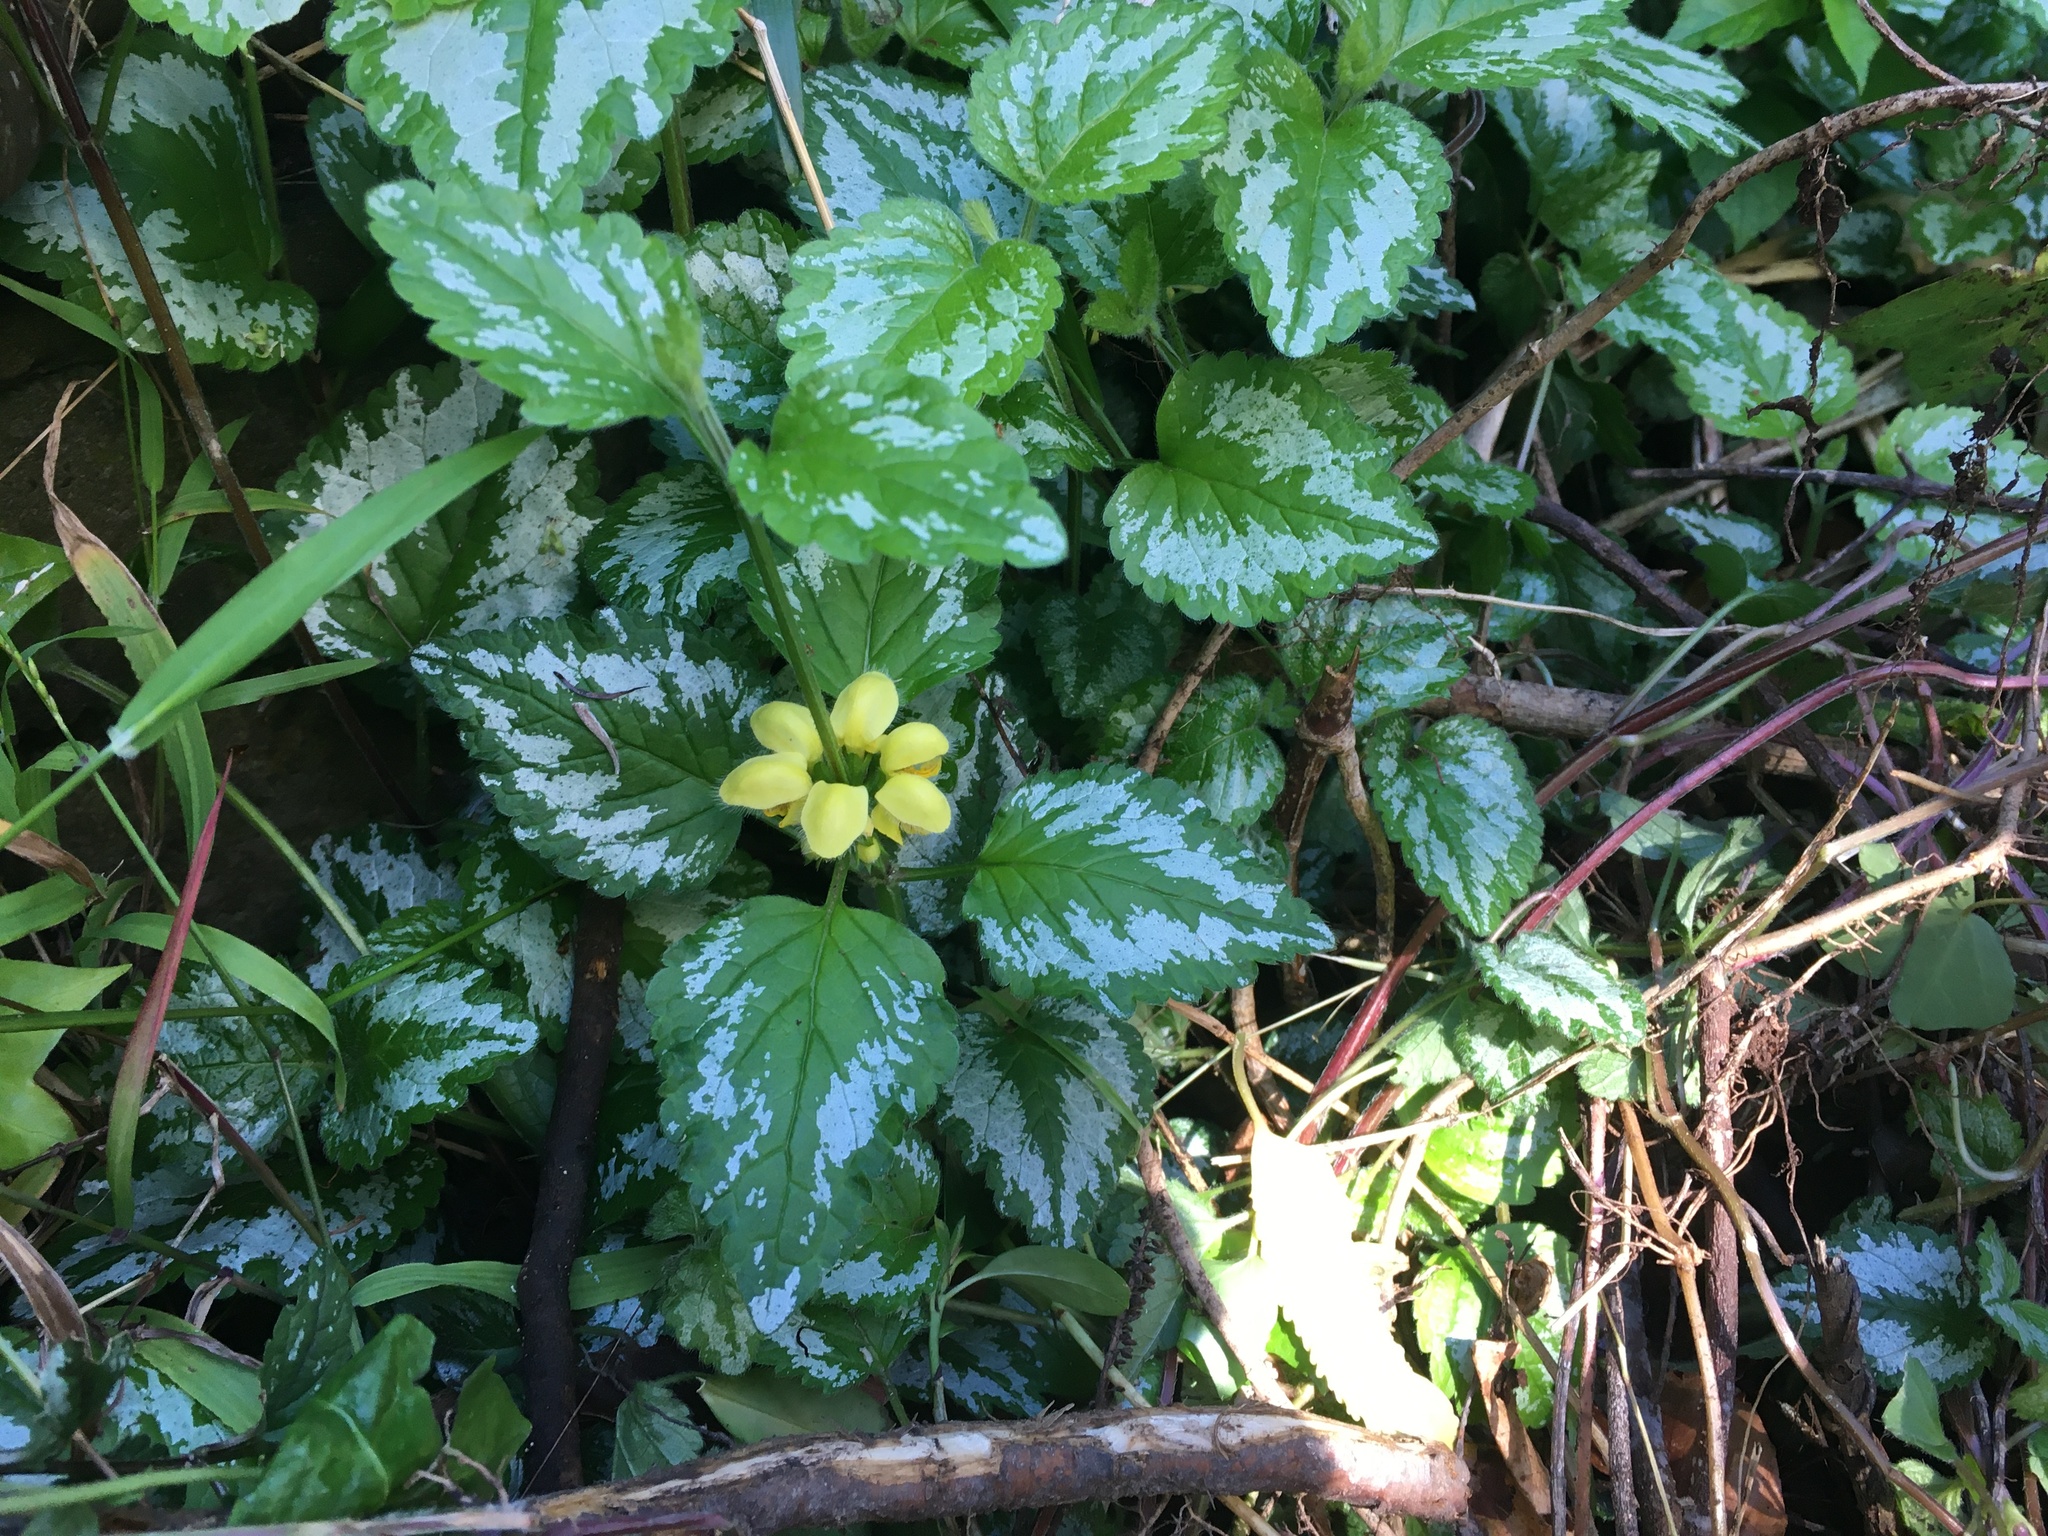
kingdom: Plantae
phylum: Tracheophyta
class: Magnoliopsida
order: Lamiales
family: Lamiaceae
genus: Lamium
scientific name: Lamium galeobdolon
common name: Yellow archangel
